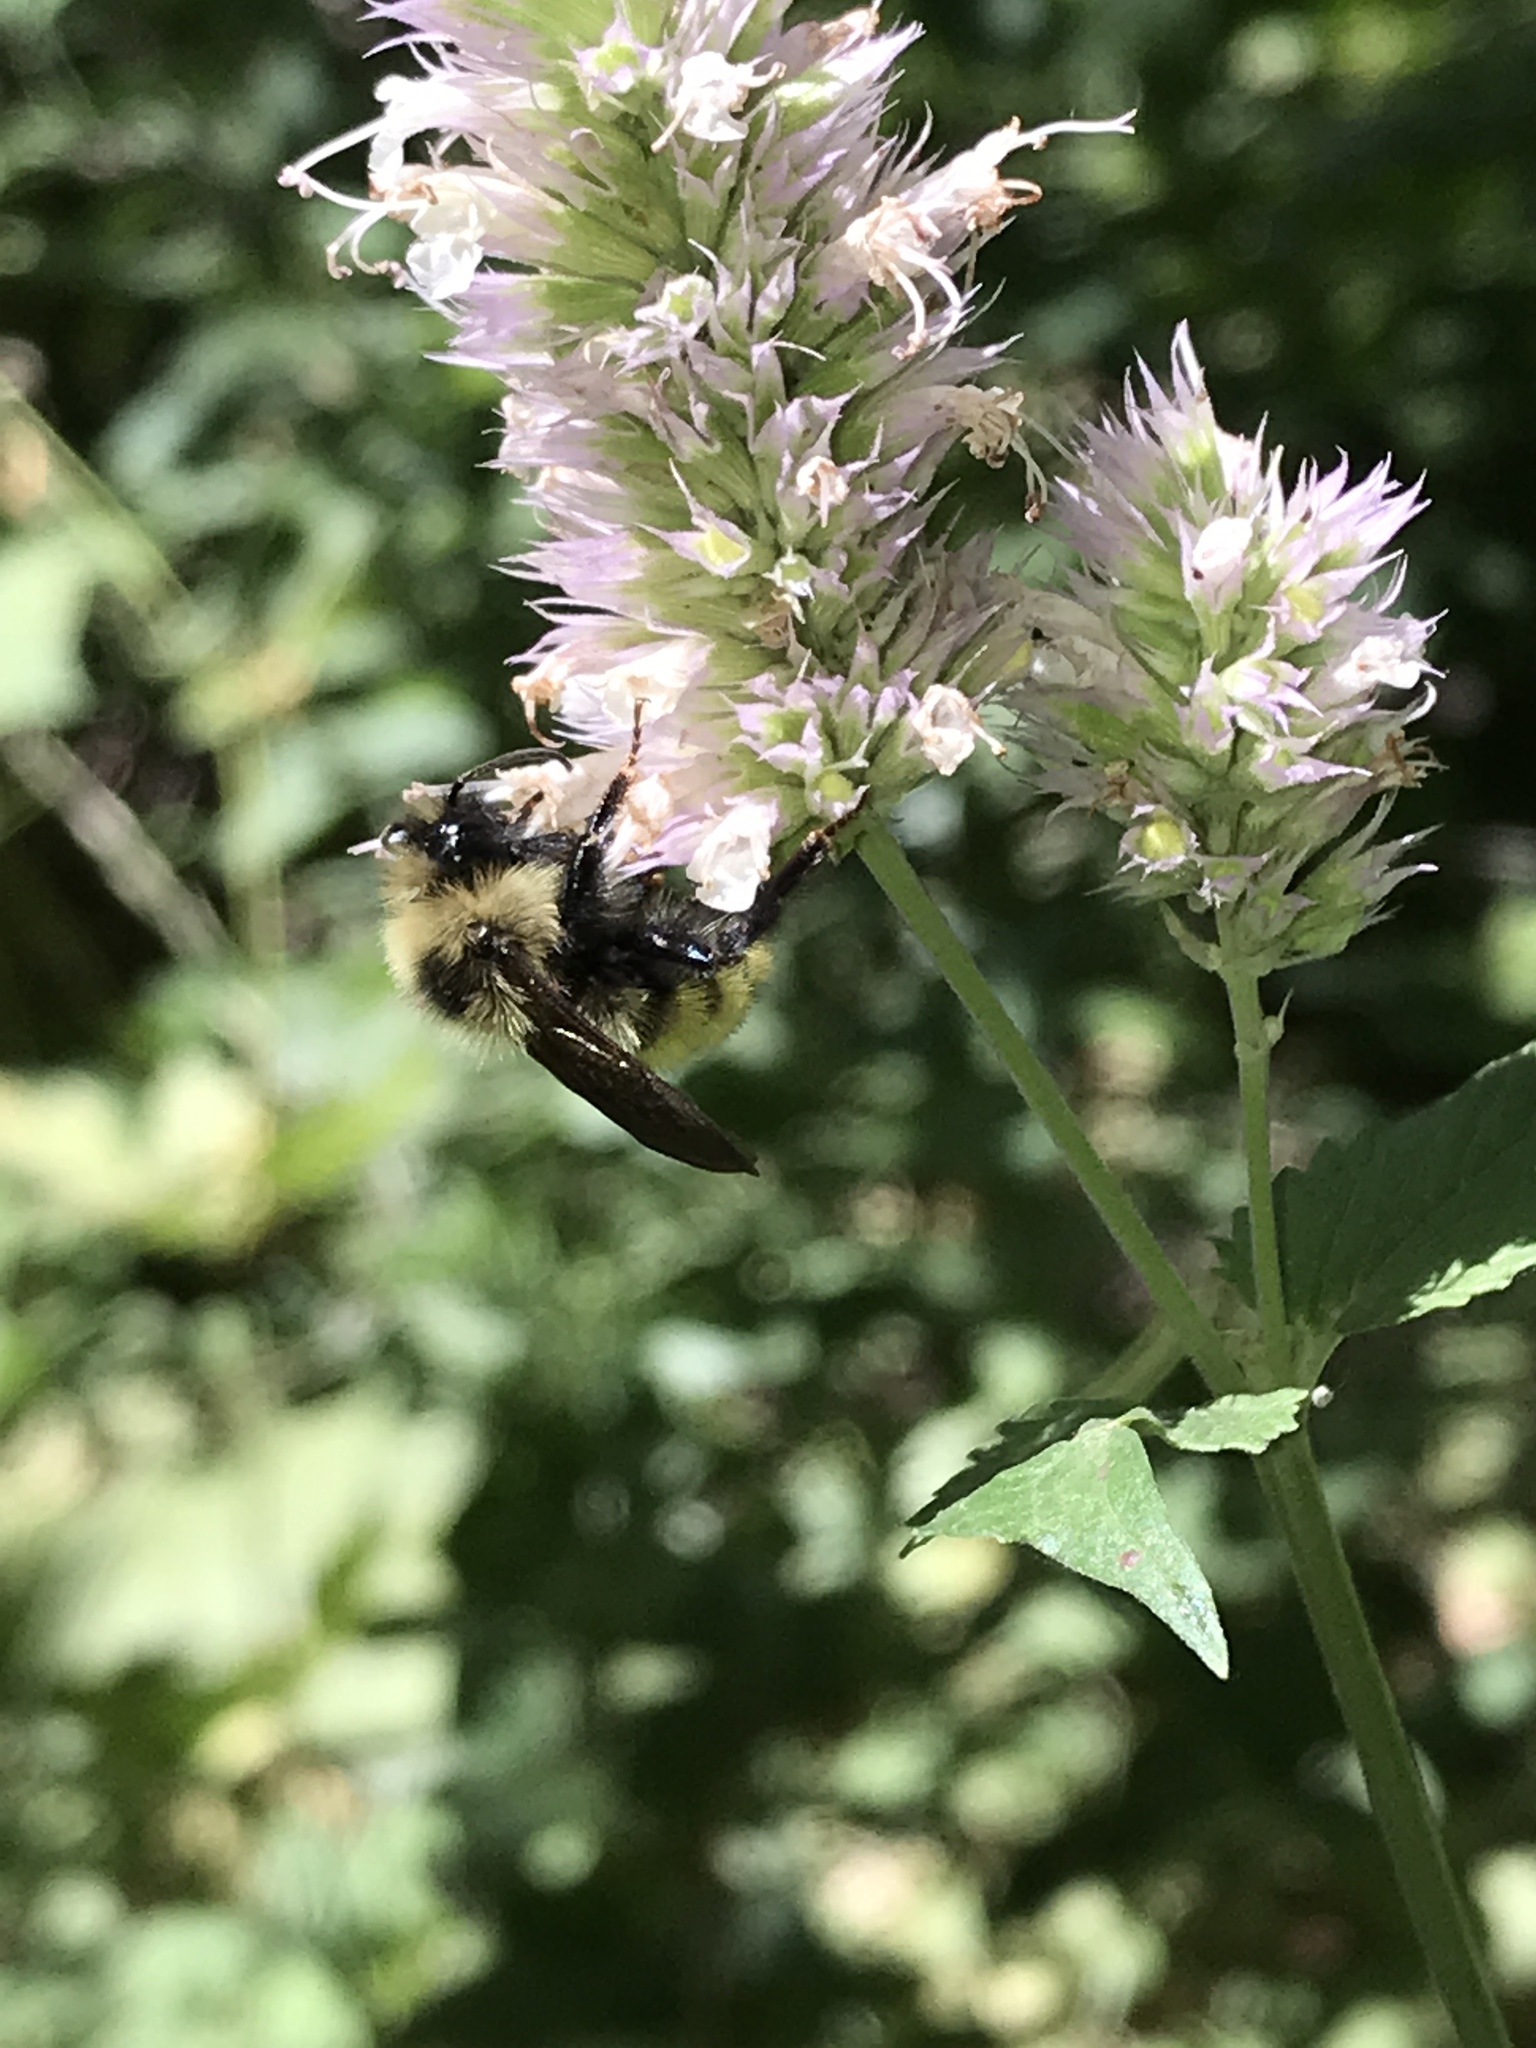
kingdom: Animalia
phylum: Arthropoda
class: Insecta
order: Hymenoptera
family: Apidae
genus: Bombus
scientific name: Bombus insularis
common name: Indiscriminate cuckoo bumble bee
